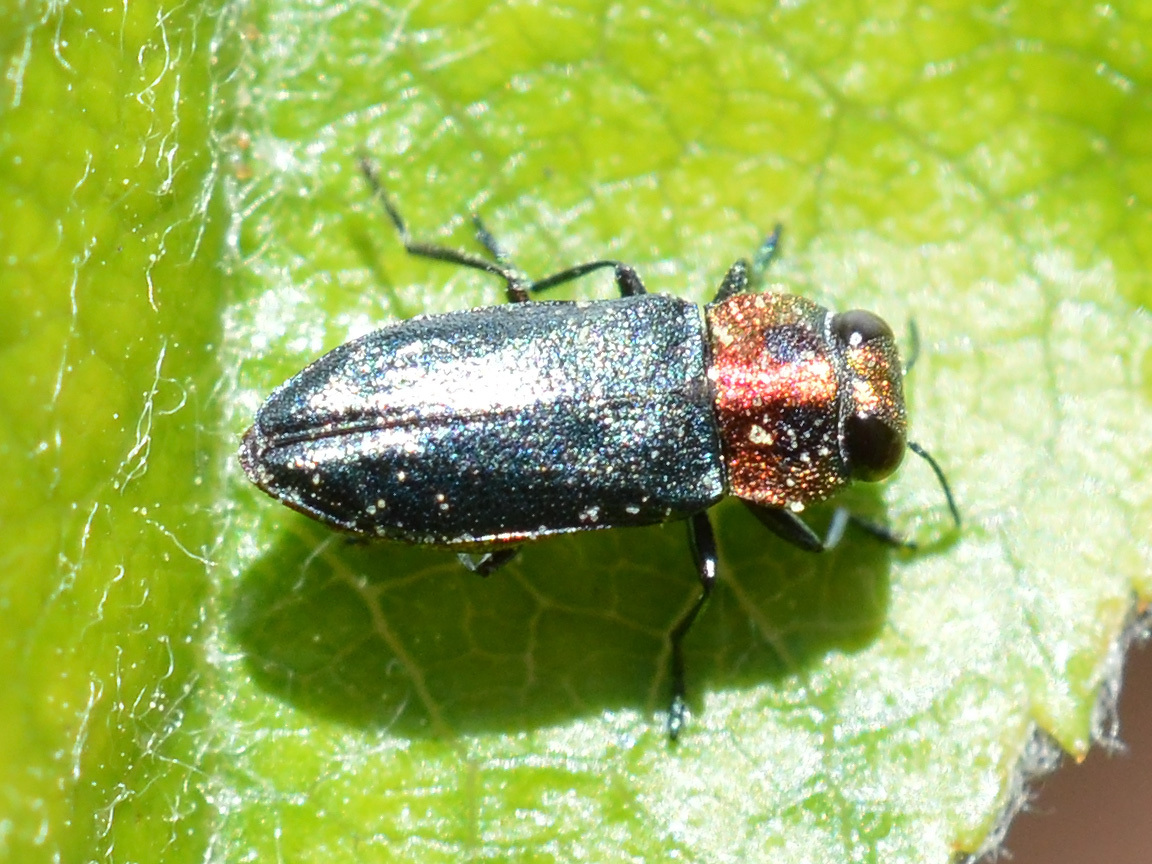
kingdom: Animalia
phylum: Arthropoda
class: Insecta
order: Coleoptera
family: Buprestidae
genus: Anthaxia
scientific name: Anthaxia nitidula
